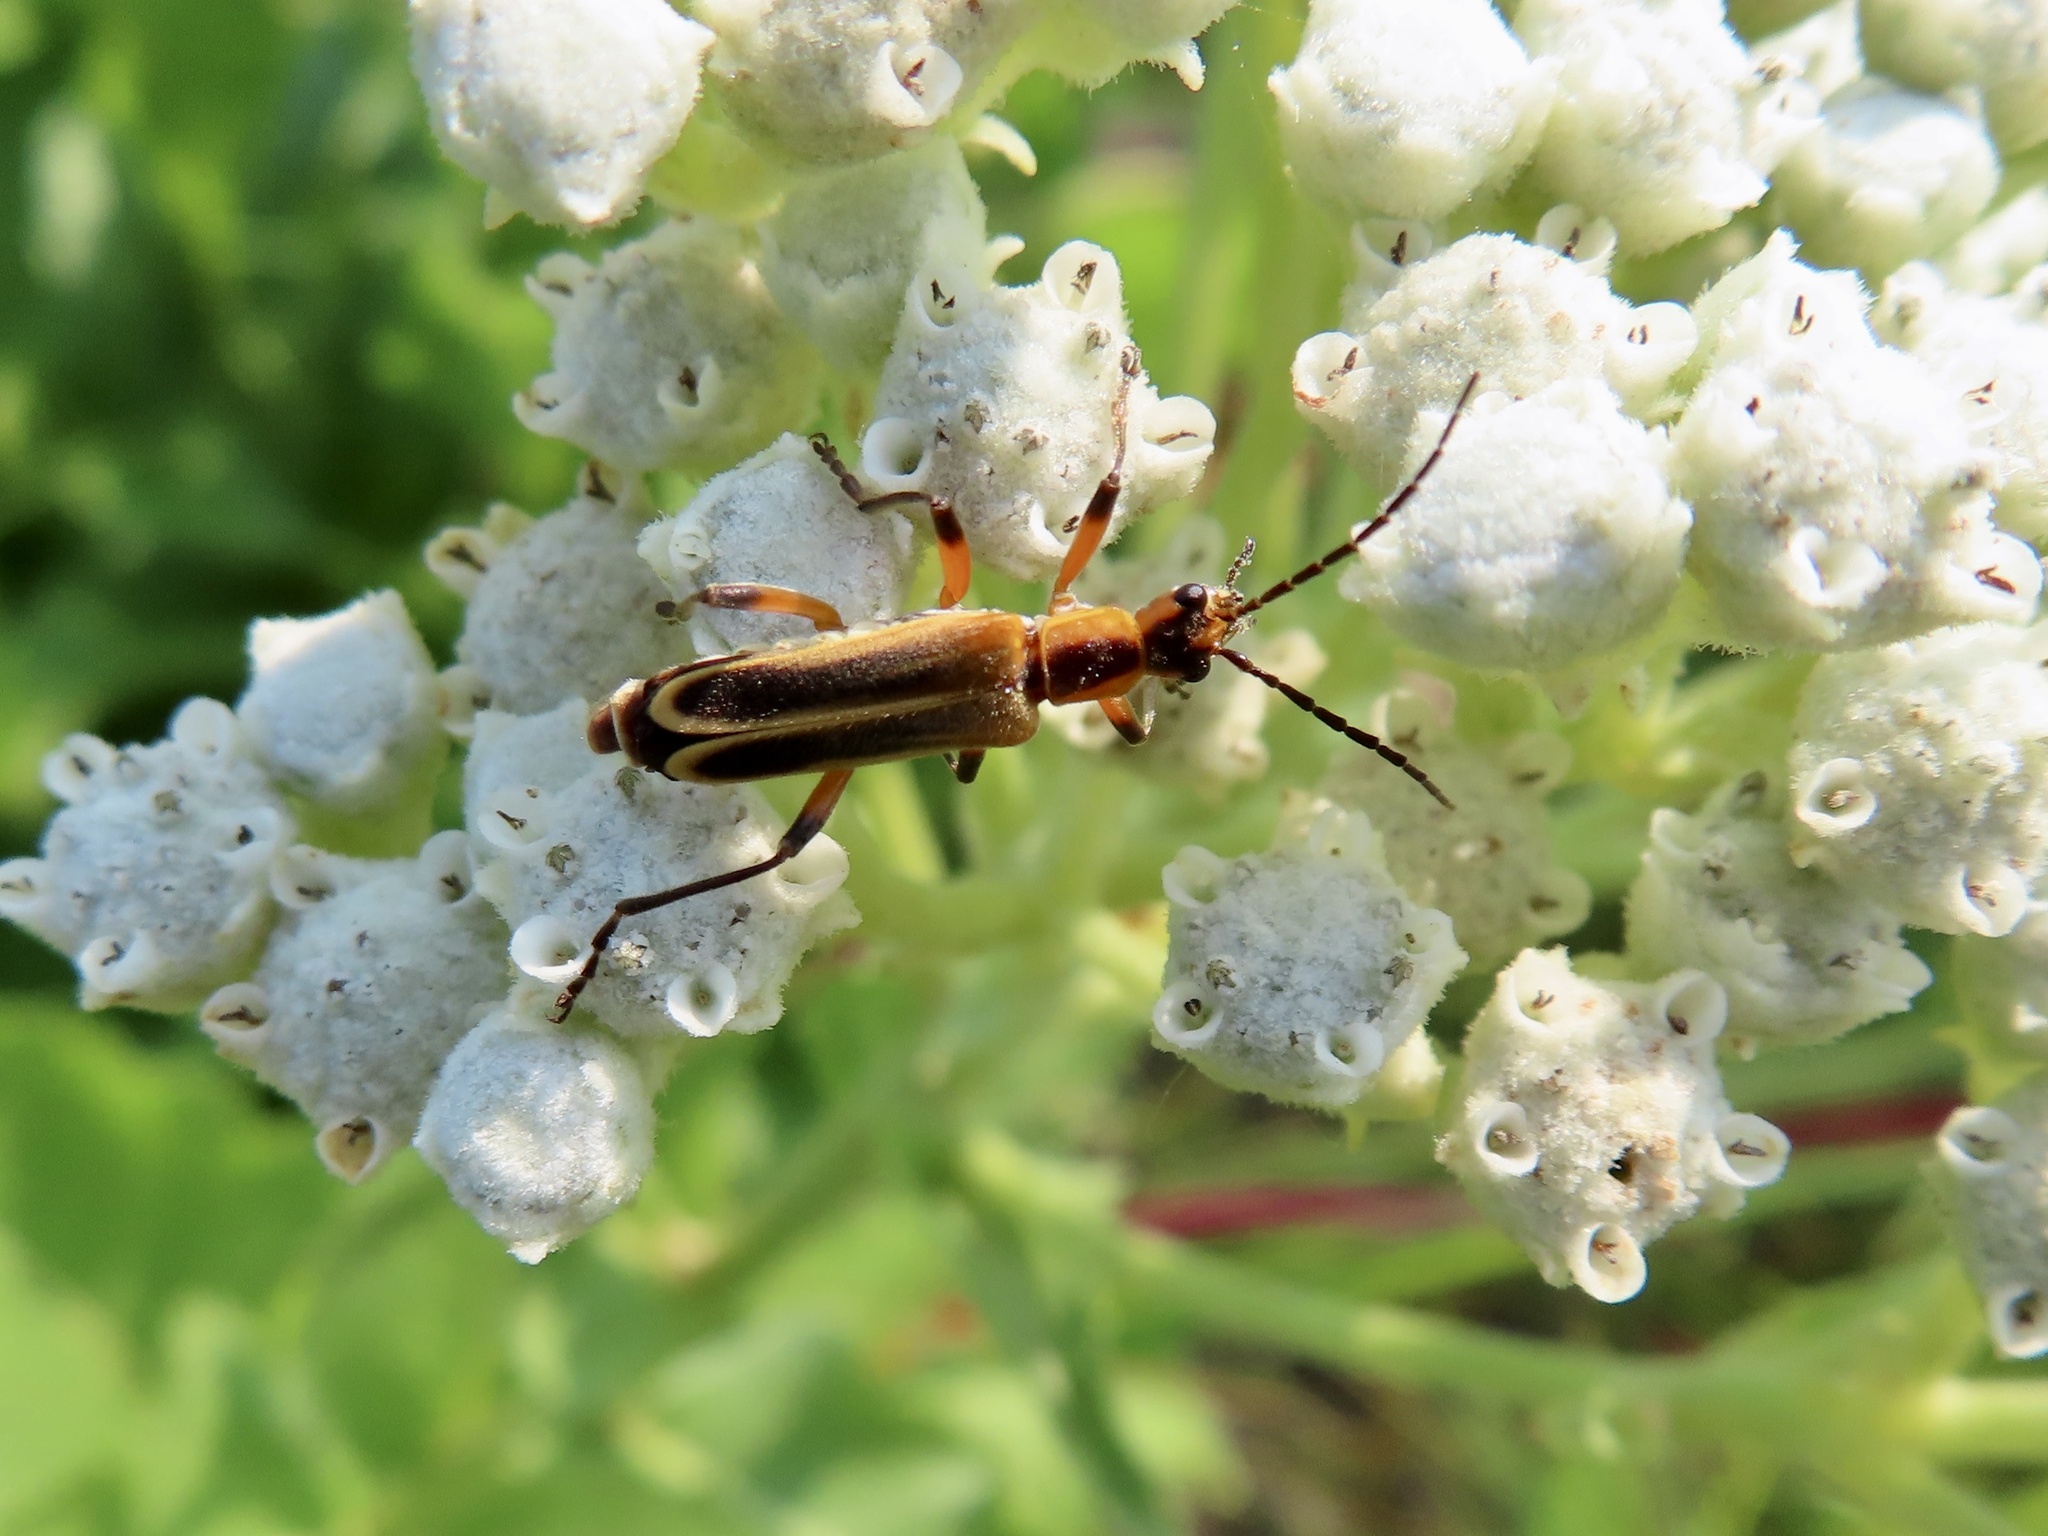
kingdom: Animalia
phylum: Arthropoda
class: Insecta
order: Coleoptera
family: Cantharidae
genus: Chauliognathus
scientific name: Chauliognathus marginatus
